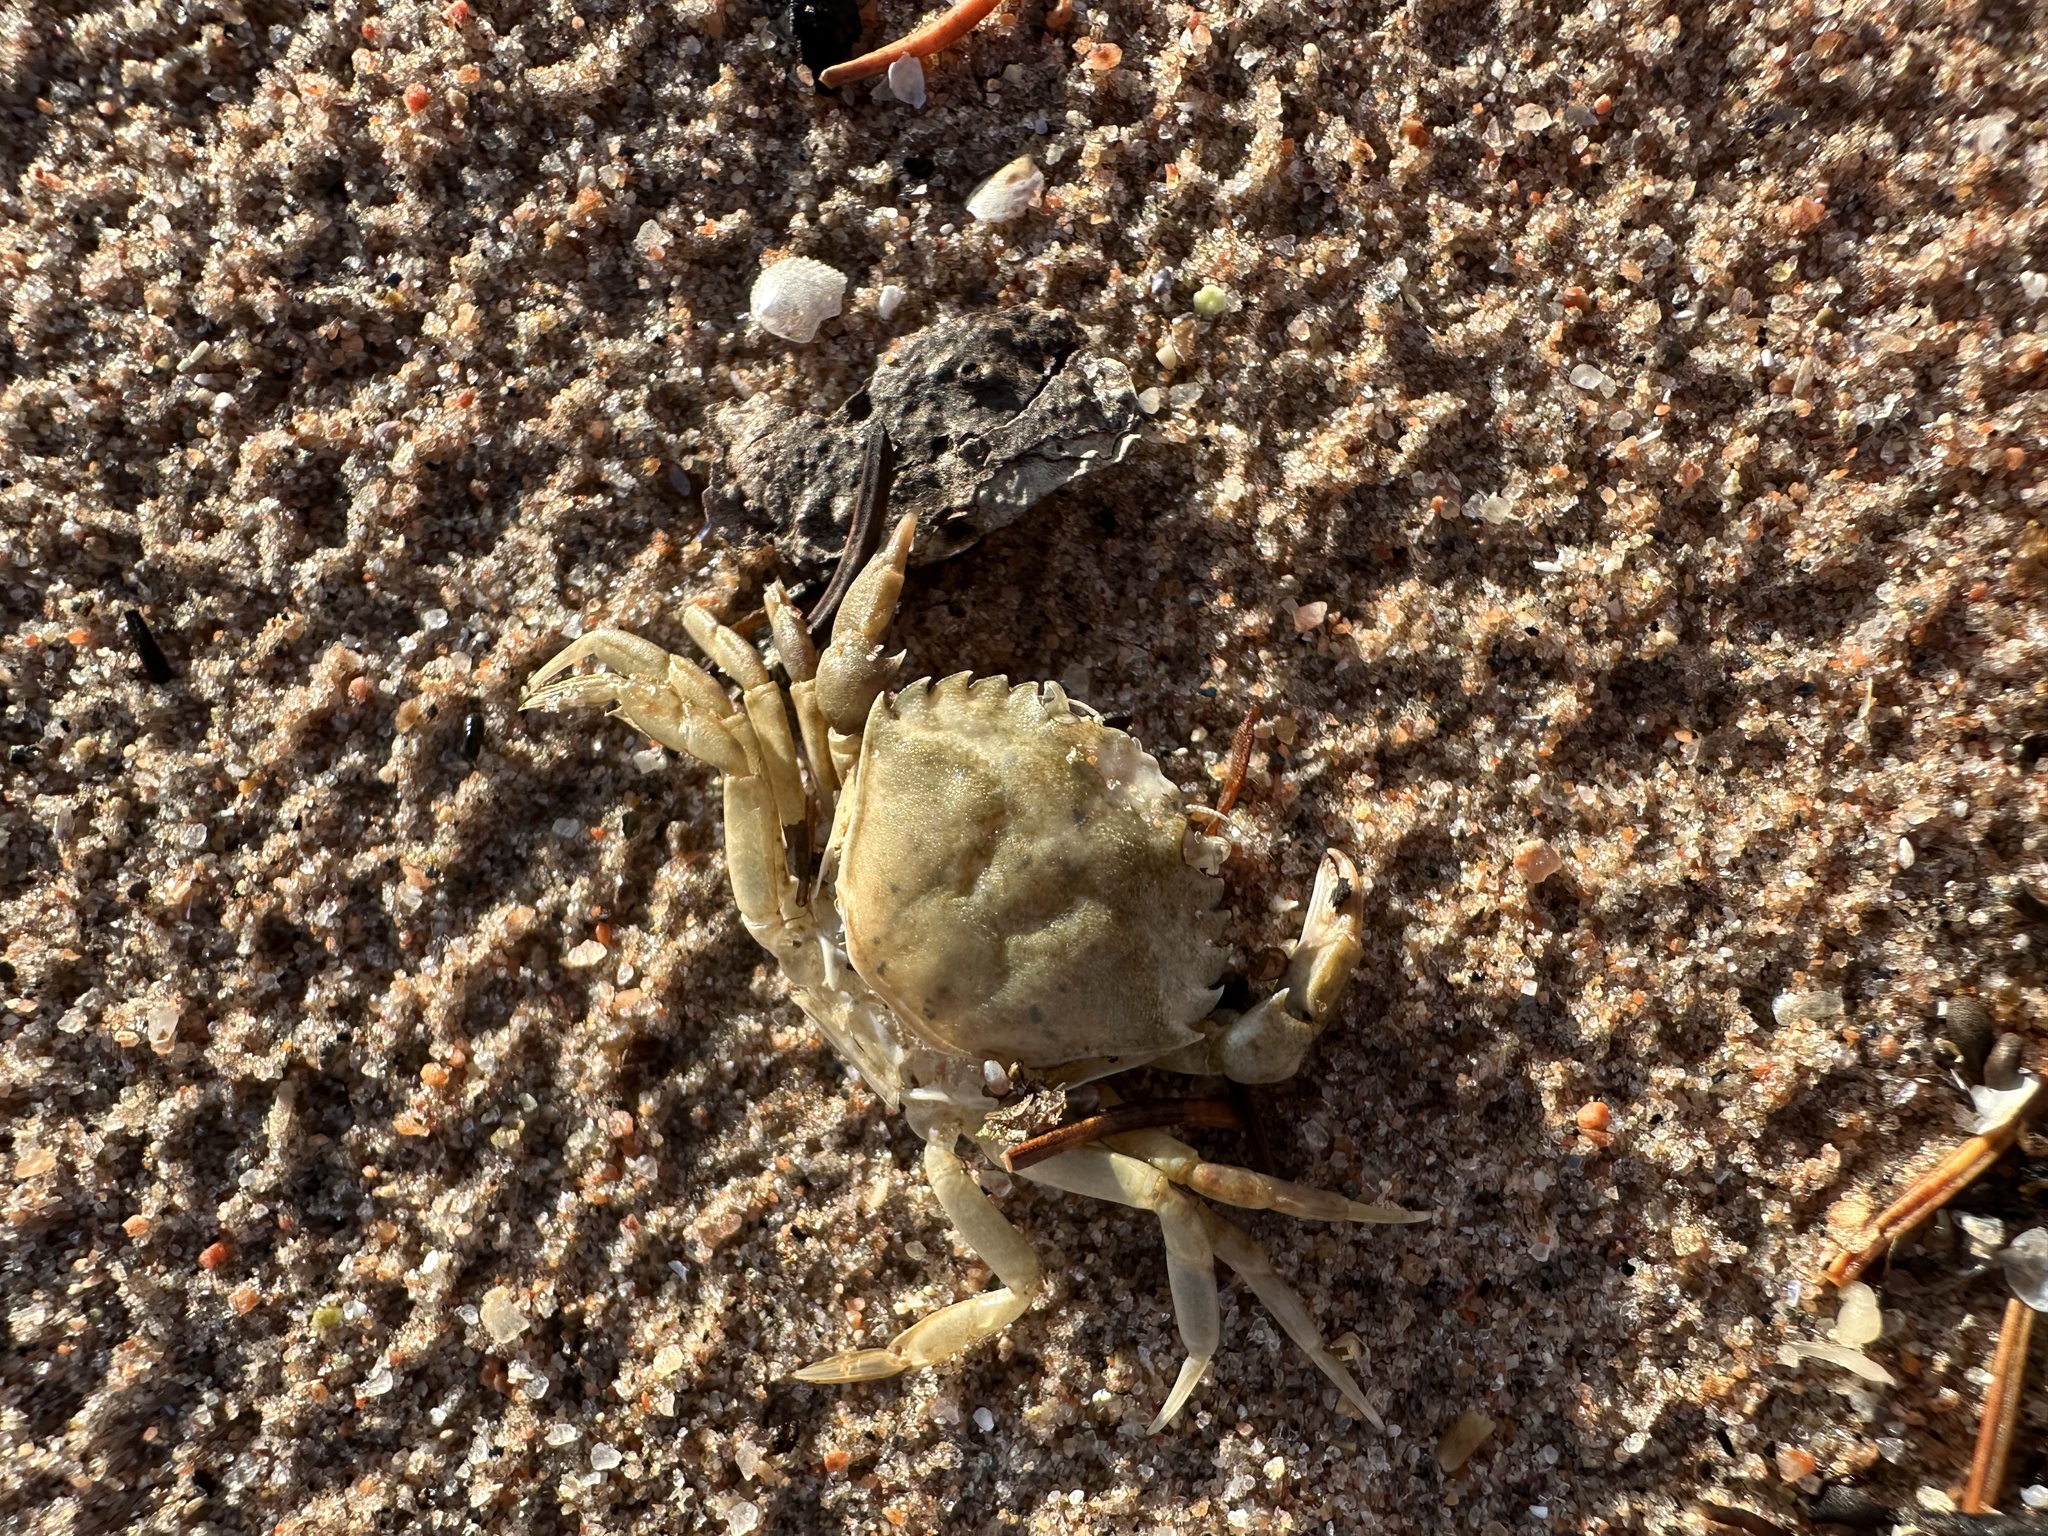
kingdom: Animalia
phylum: Arthropoda
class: Malacostraca
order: Decapoda
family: Carcinidae
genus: Carcinus
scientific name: Carcinus maenas
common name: European green crab
